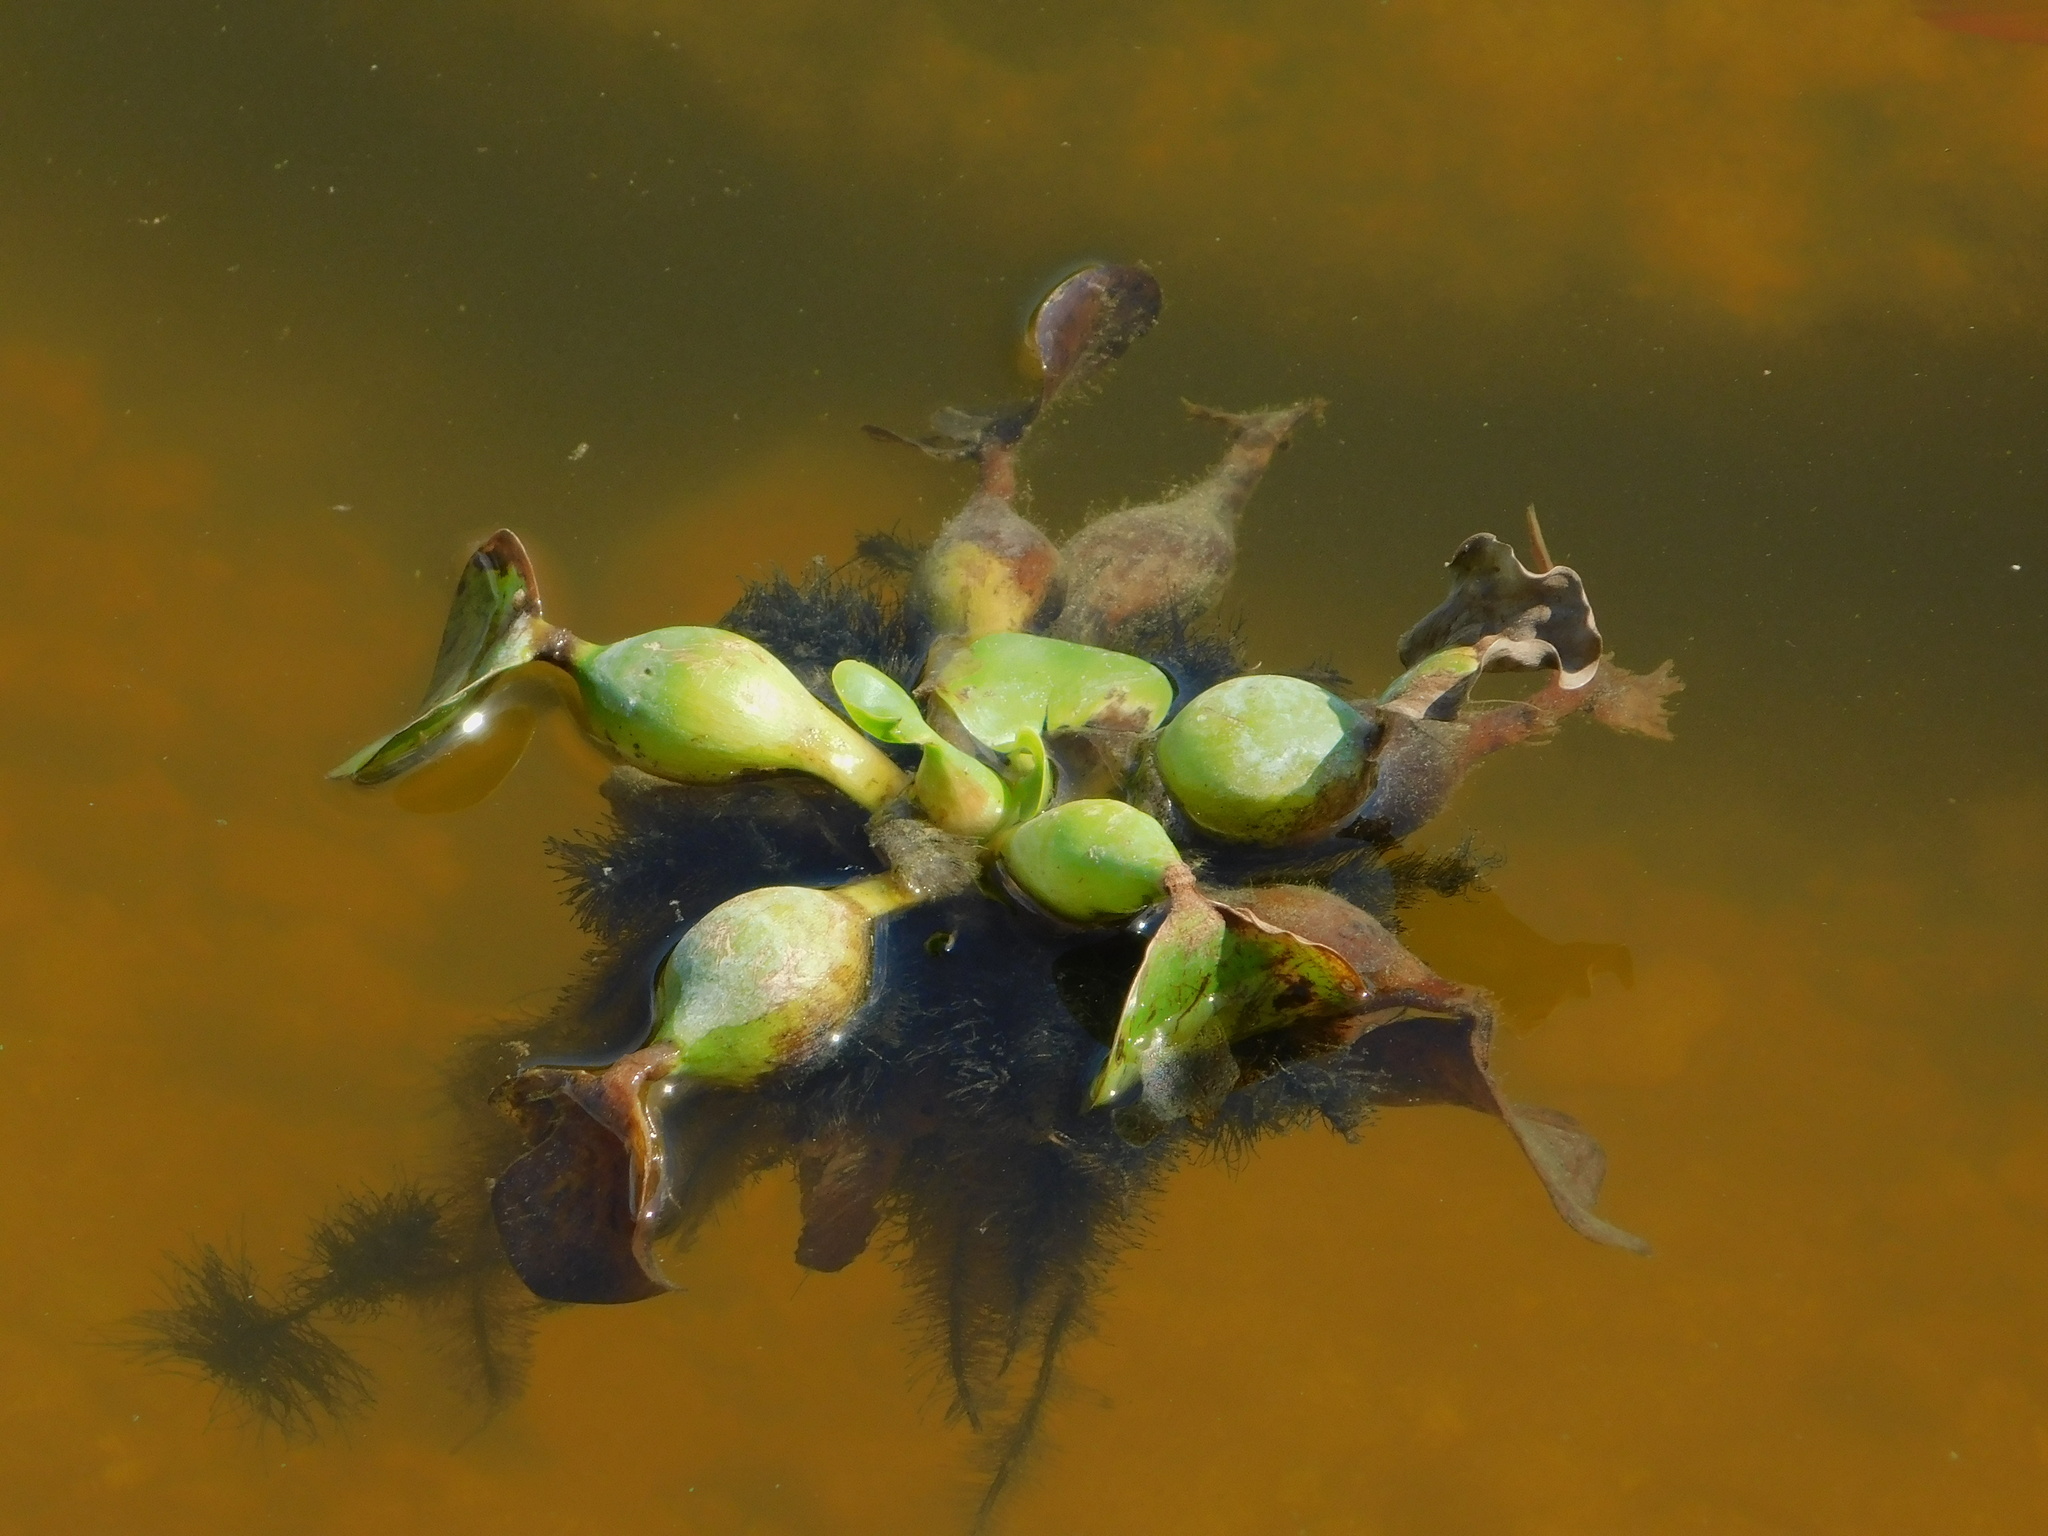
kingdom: Plantae
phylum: Tracheophyta
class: Liliopsida
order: Commelinales
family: Pontederiaceae
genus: Pontederia
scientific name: Pontederia crassipes
